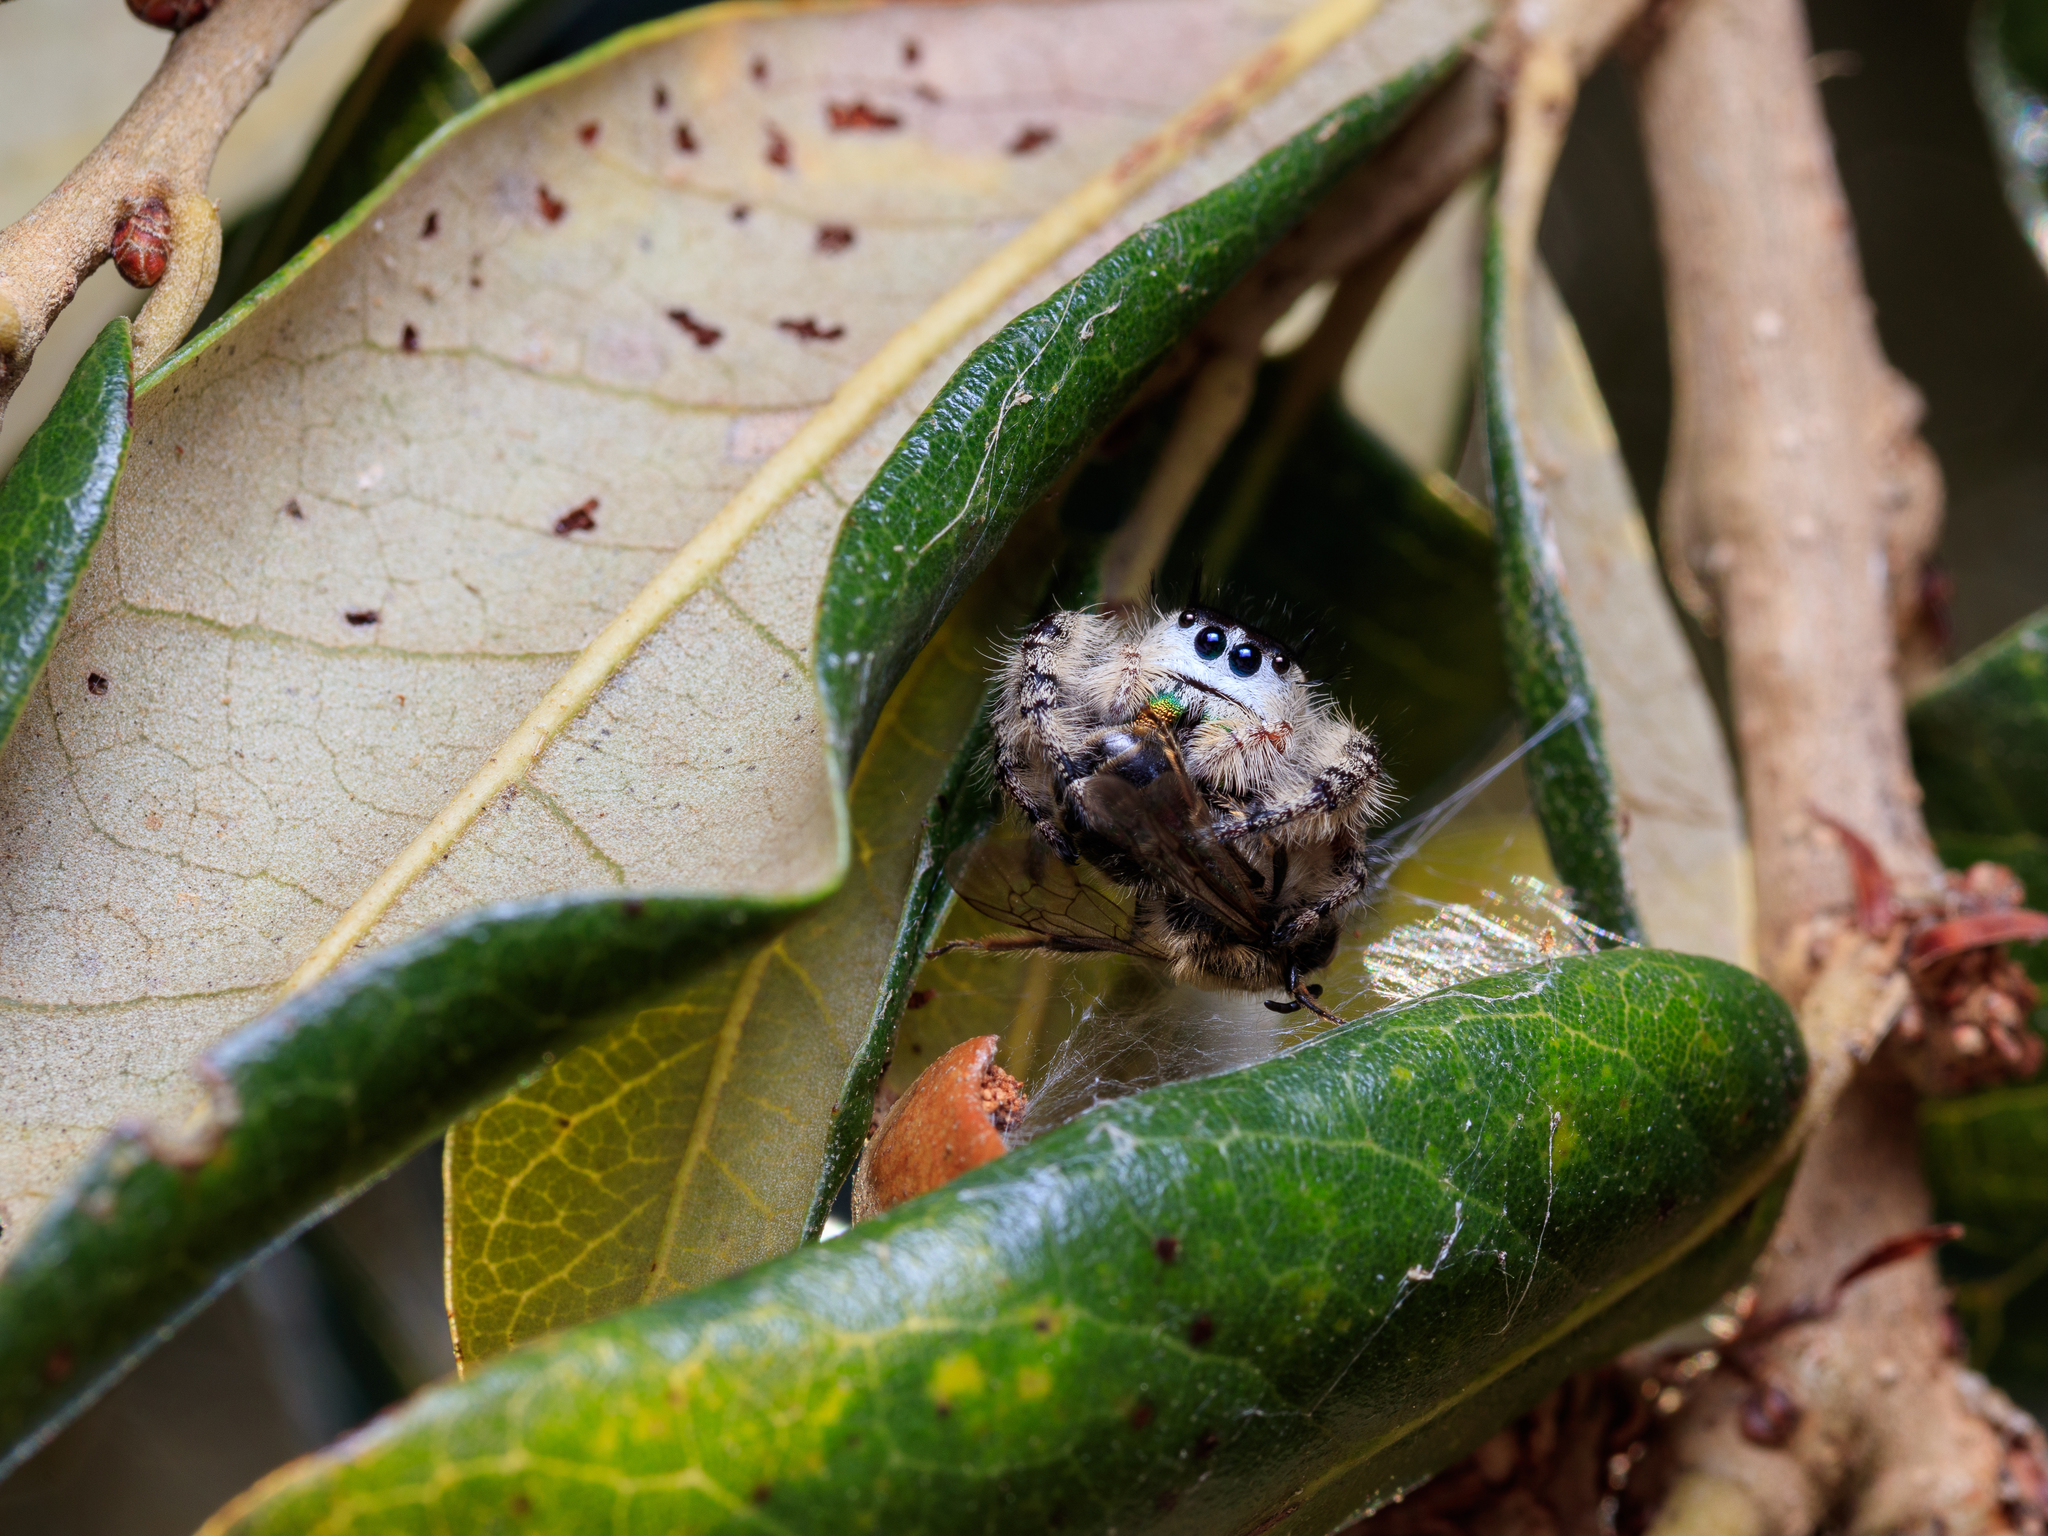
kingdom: Animalia
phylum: Arthropoda
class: Arachnida
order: Araneae
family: Salticidae
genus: Phidippus
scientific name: Phidippus otiosus
